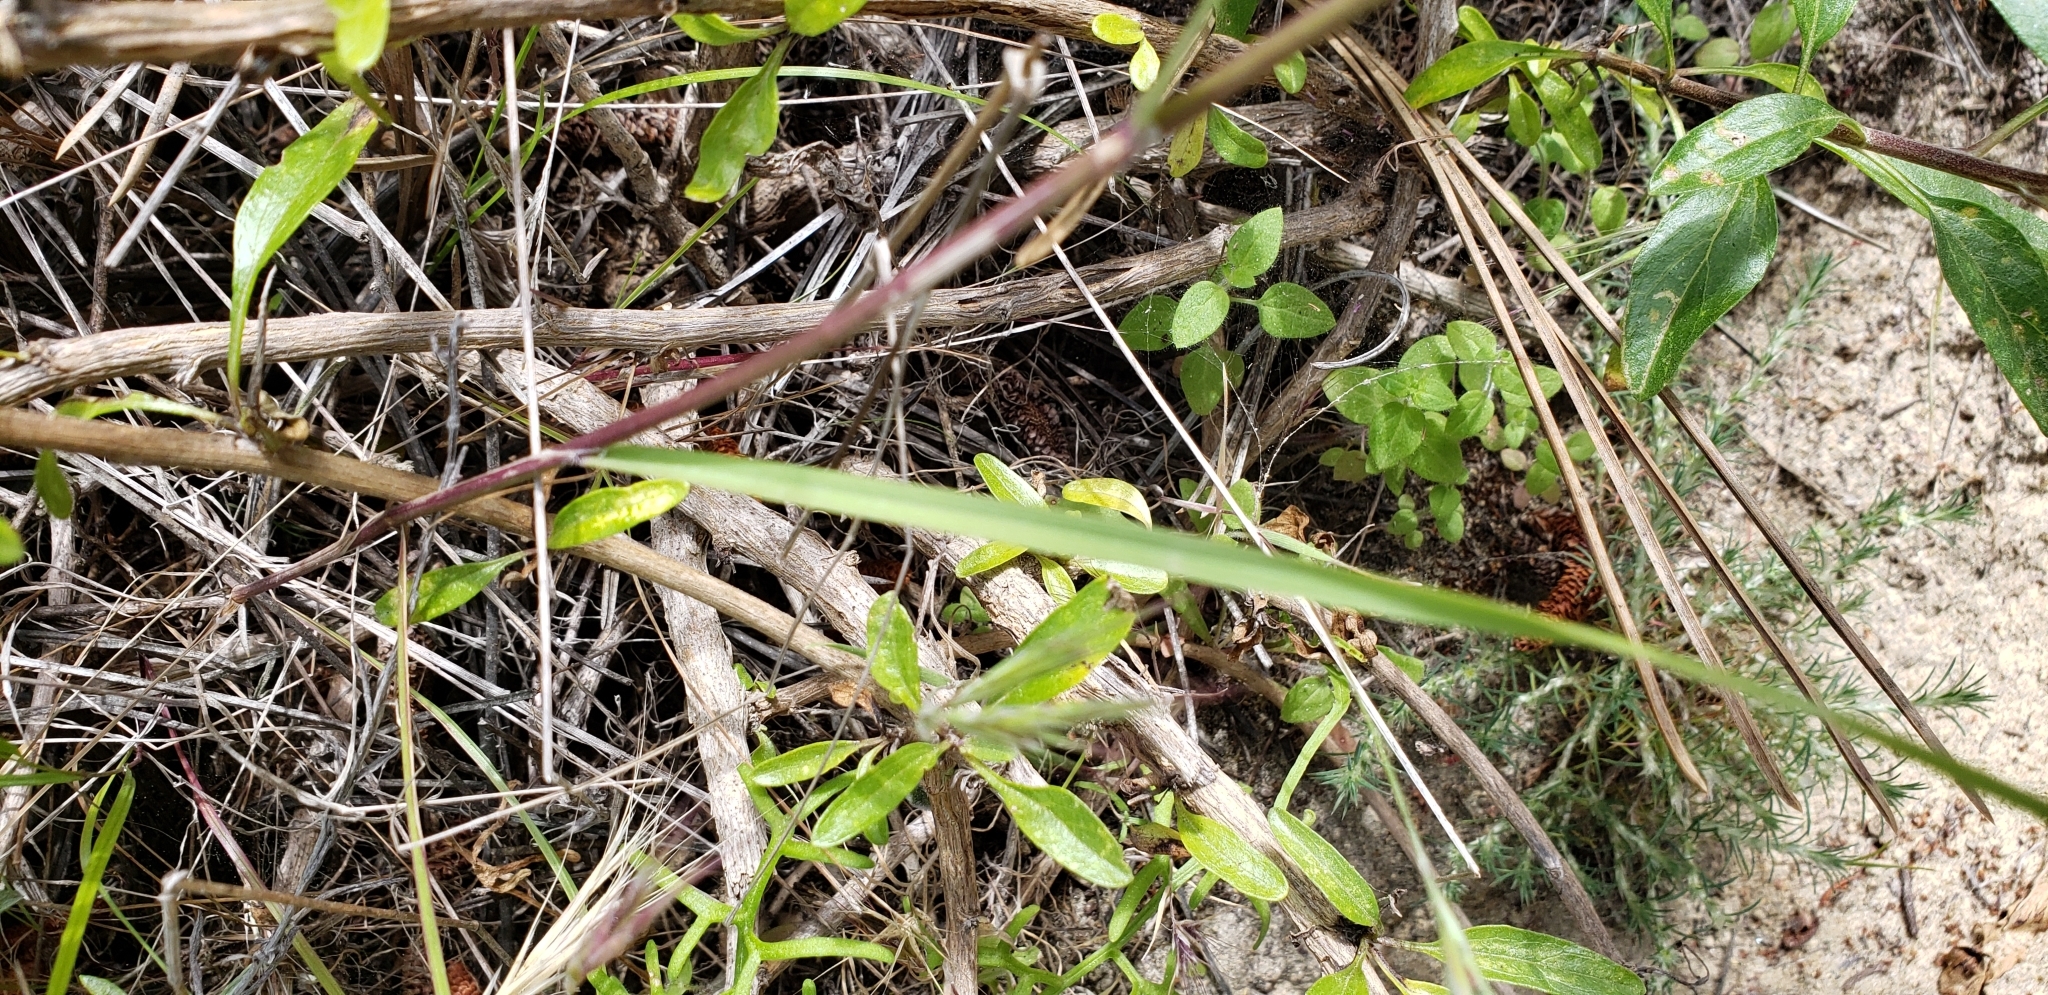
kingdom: Plantae
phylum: Tracheophyta
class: Liliopsida
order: Poales
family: Poaceae
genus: Melica
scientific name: Melica imperfecta
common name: California melic
